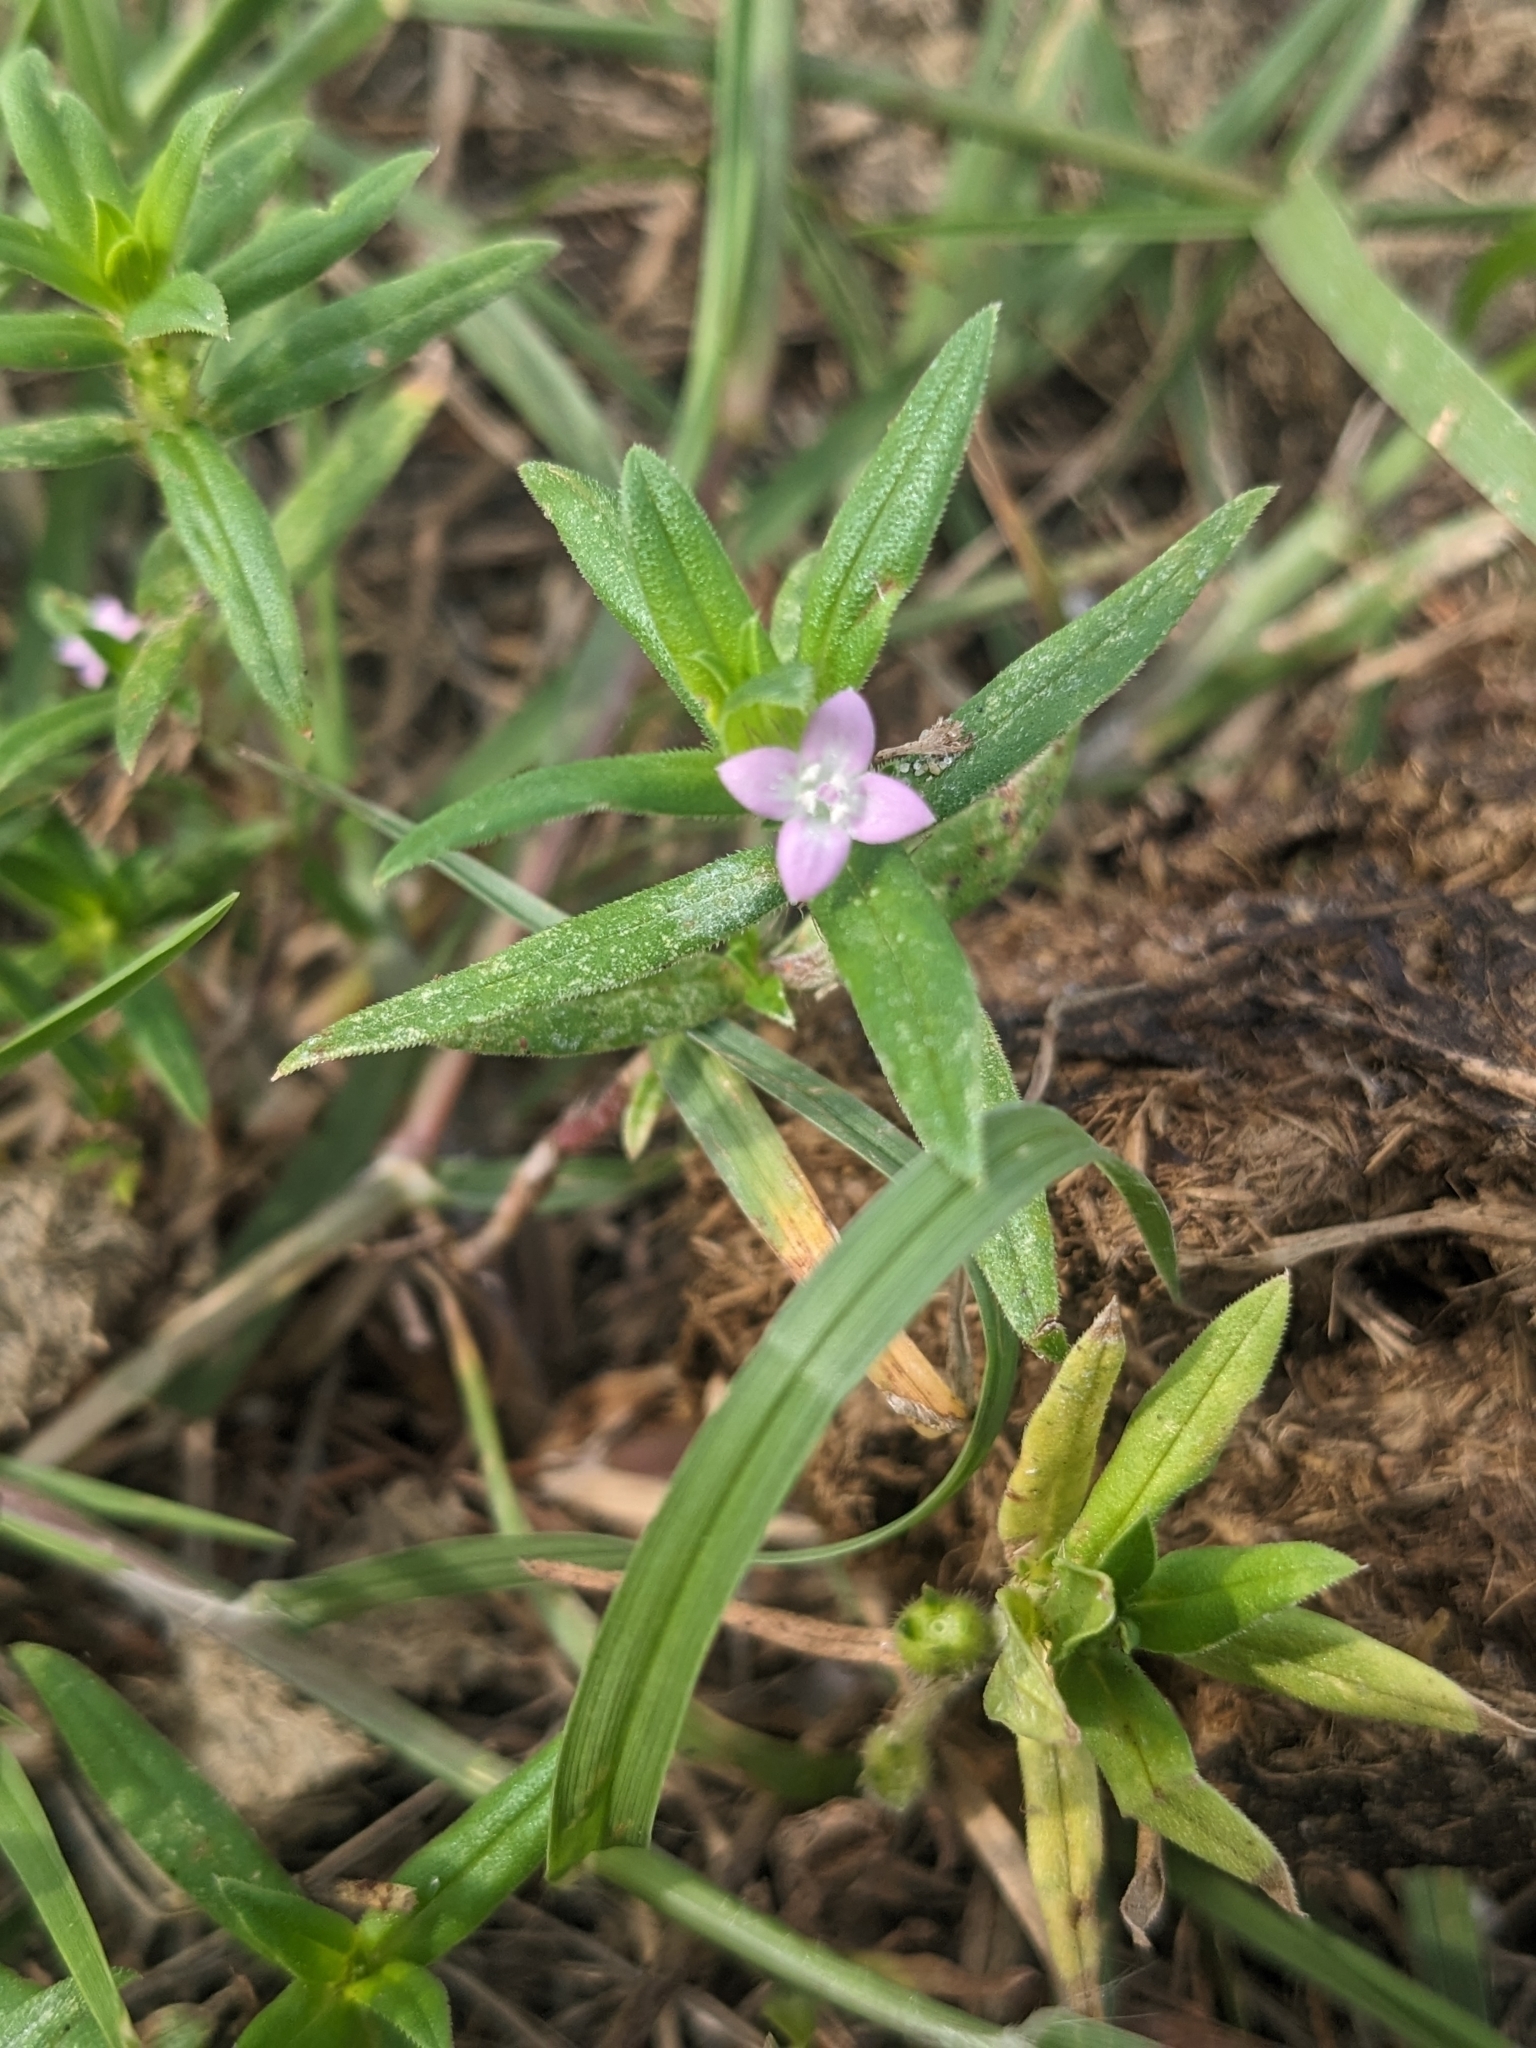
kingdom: Plantae
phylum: Tracheophyta
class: Magnoliopsida
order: Gentianales
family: Rubiaceae
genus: Hexasepalum
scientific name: Hexasepalum teres
